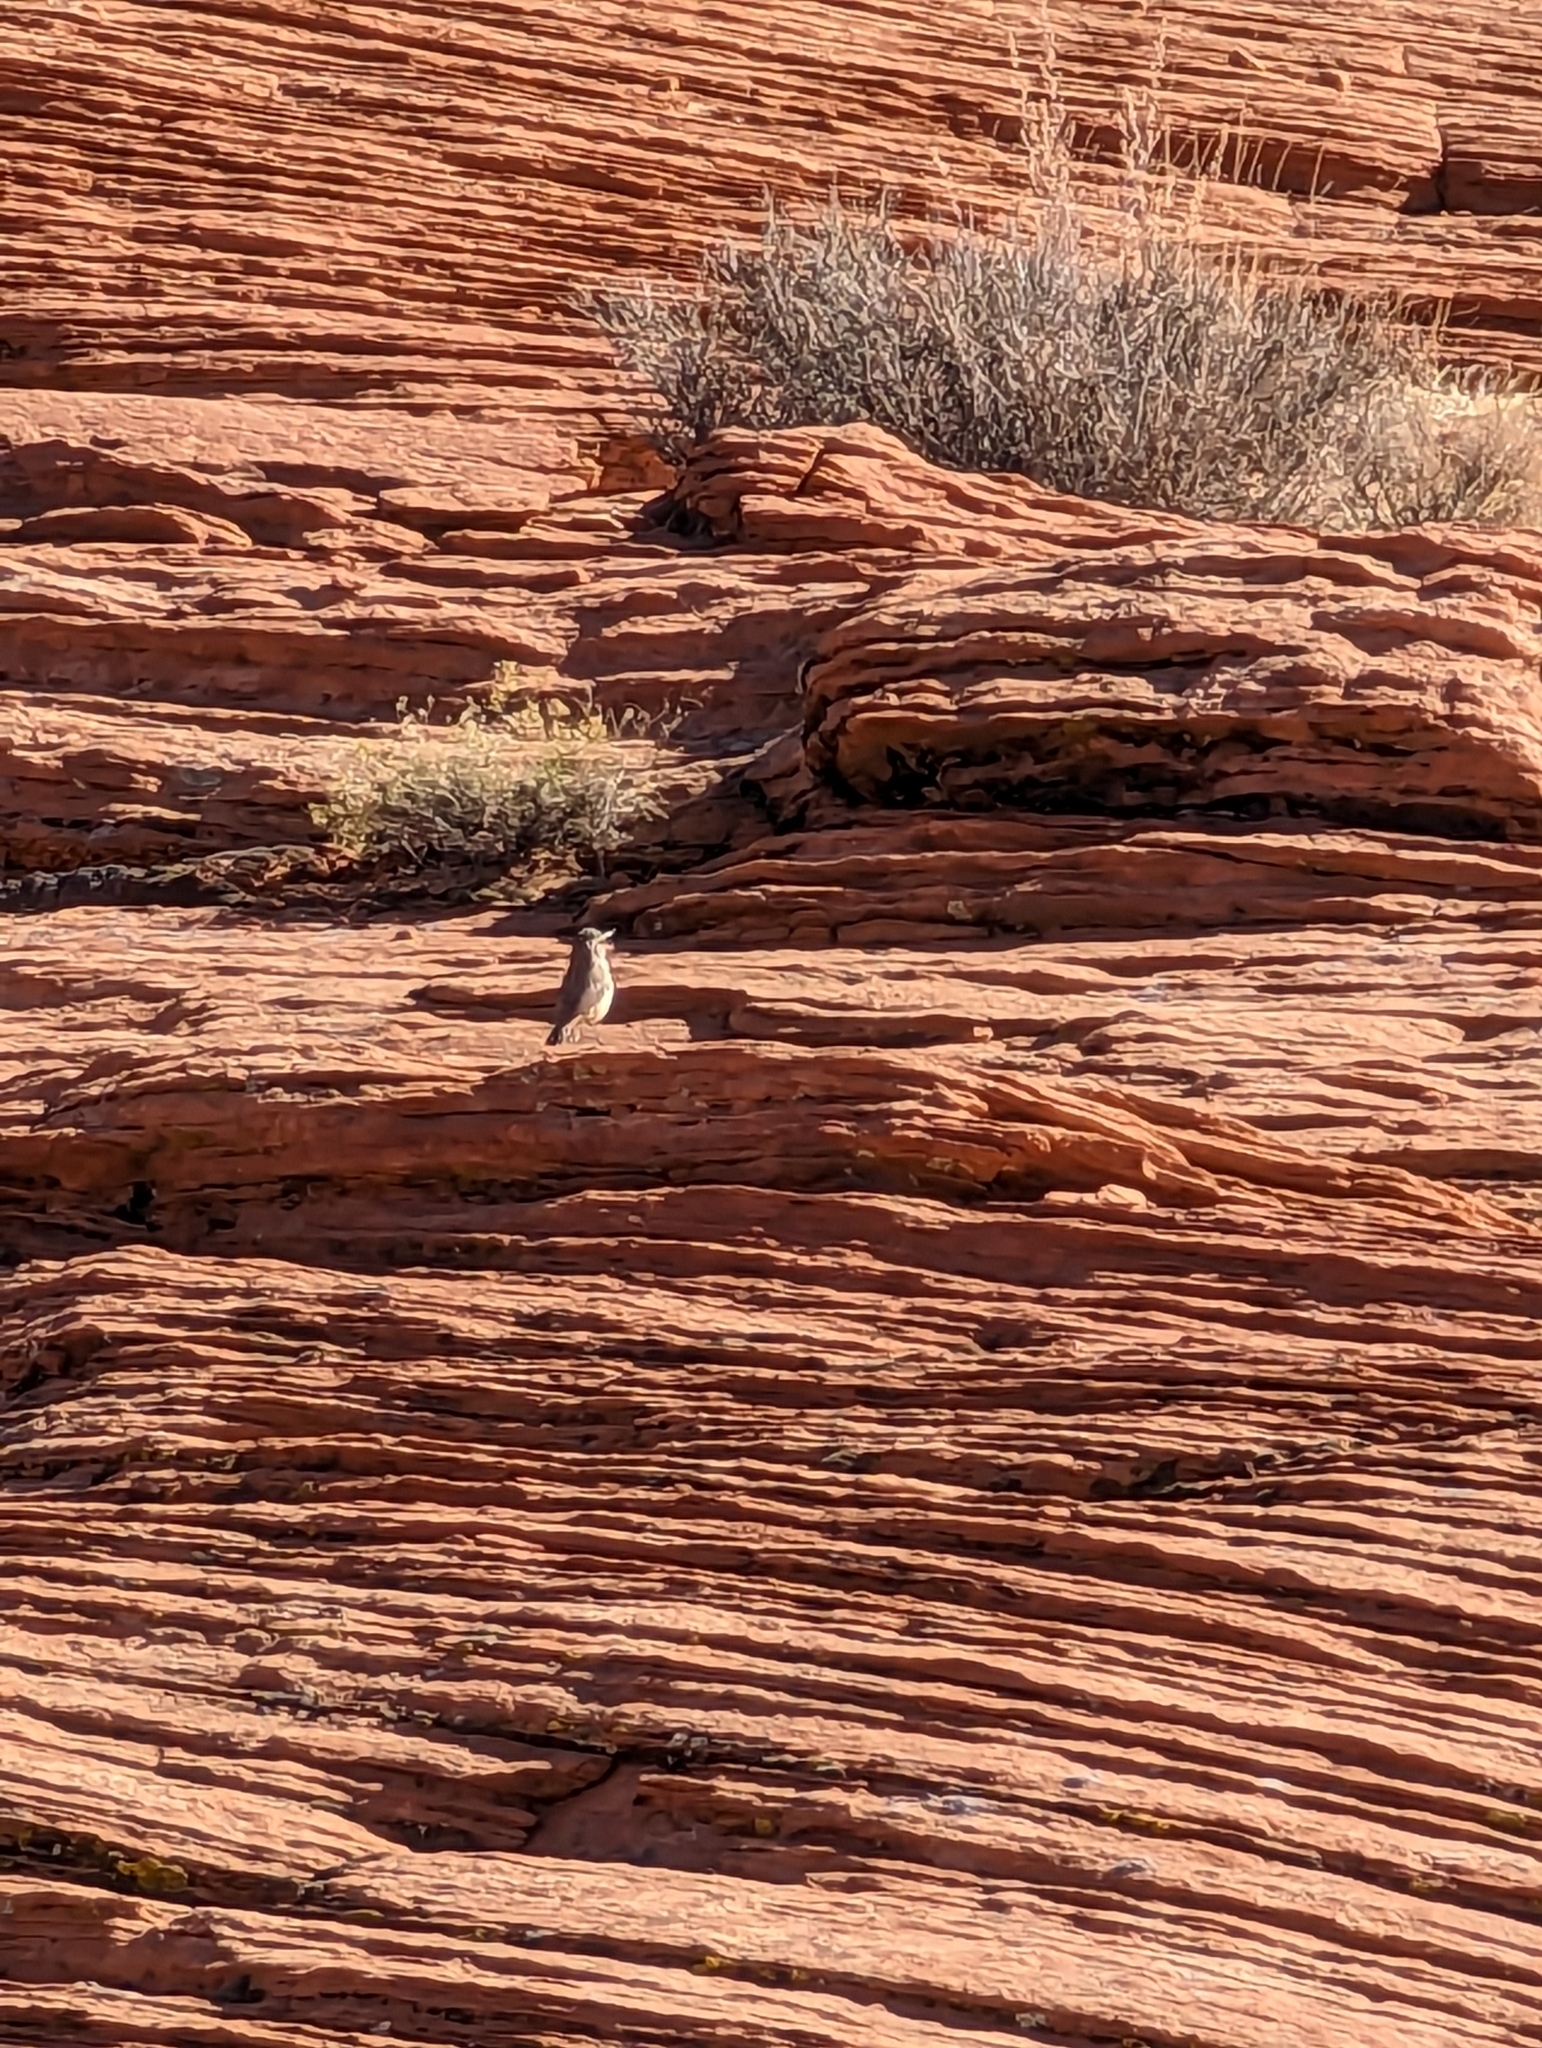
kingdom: Animalia
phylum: Chordata
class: Aves
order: Passeriformes
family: Troglodytidae
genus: Salpinctes
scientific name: Salpinctes obsoletus
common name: Rock wren
